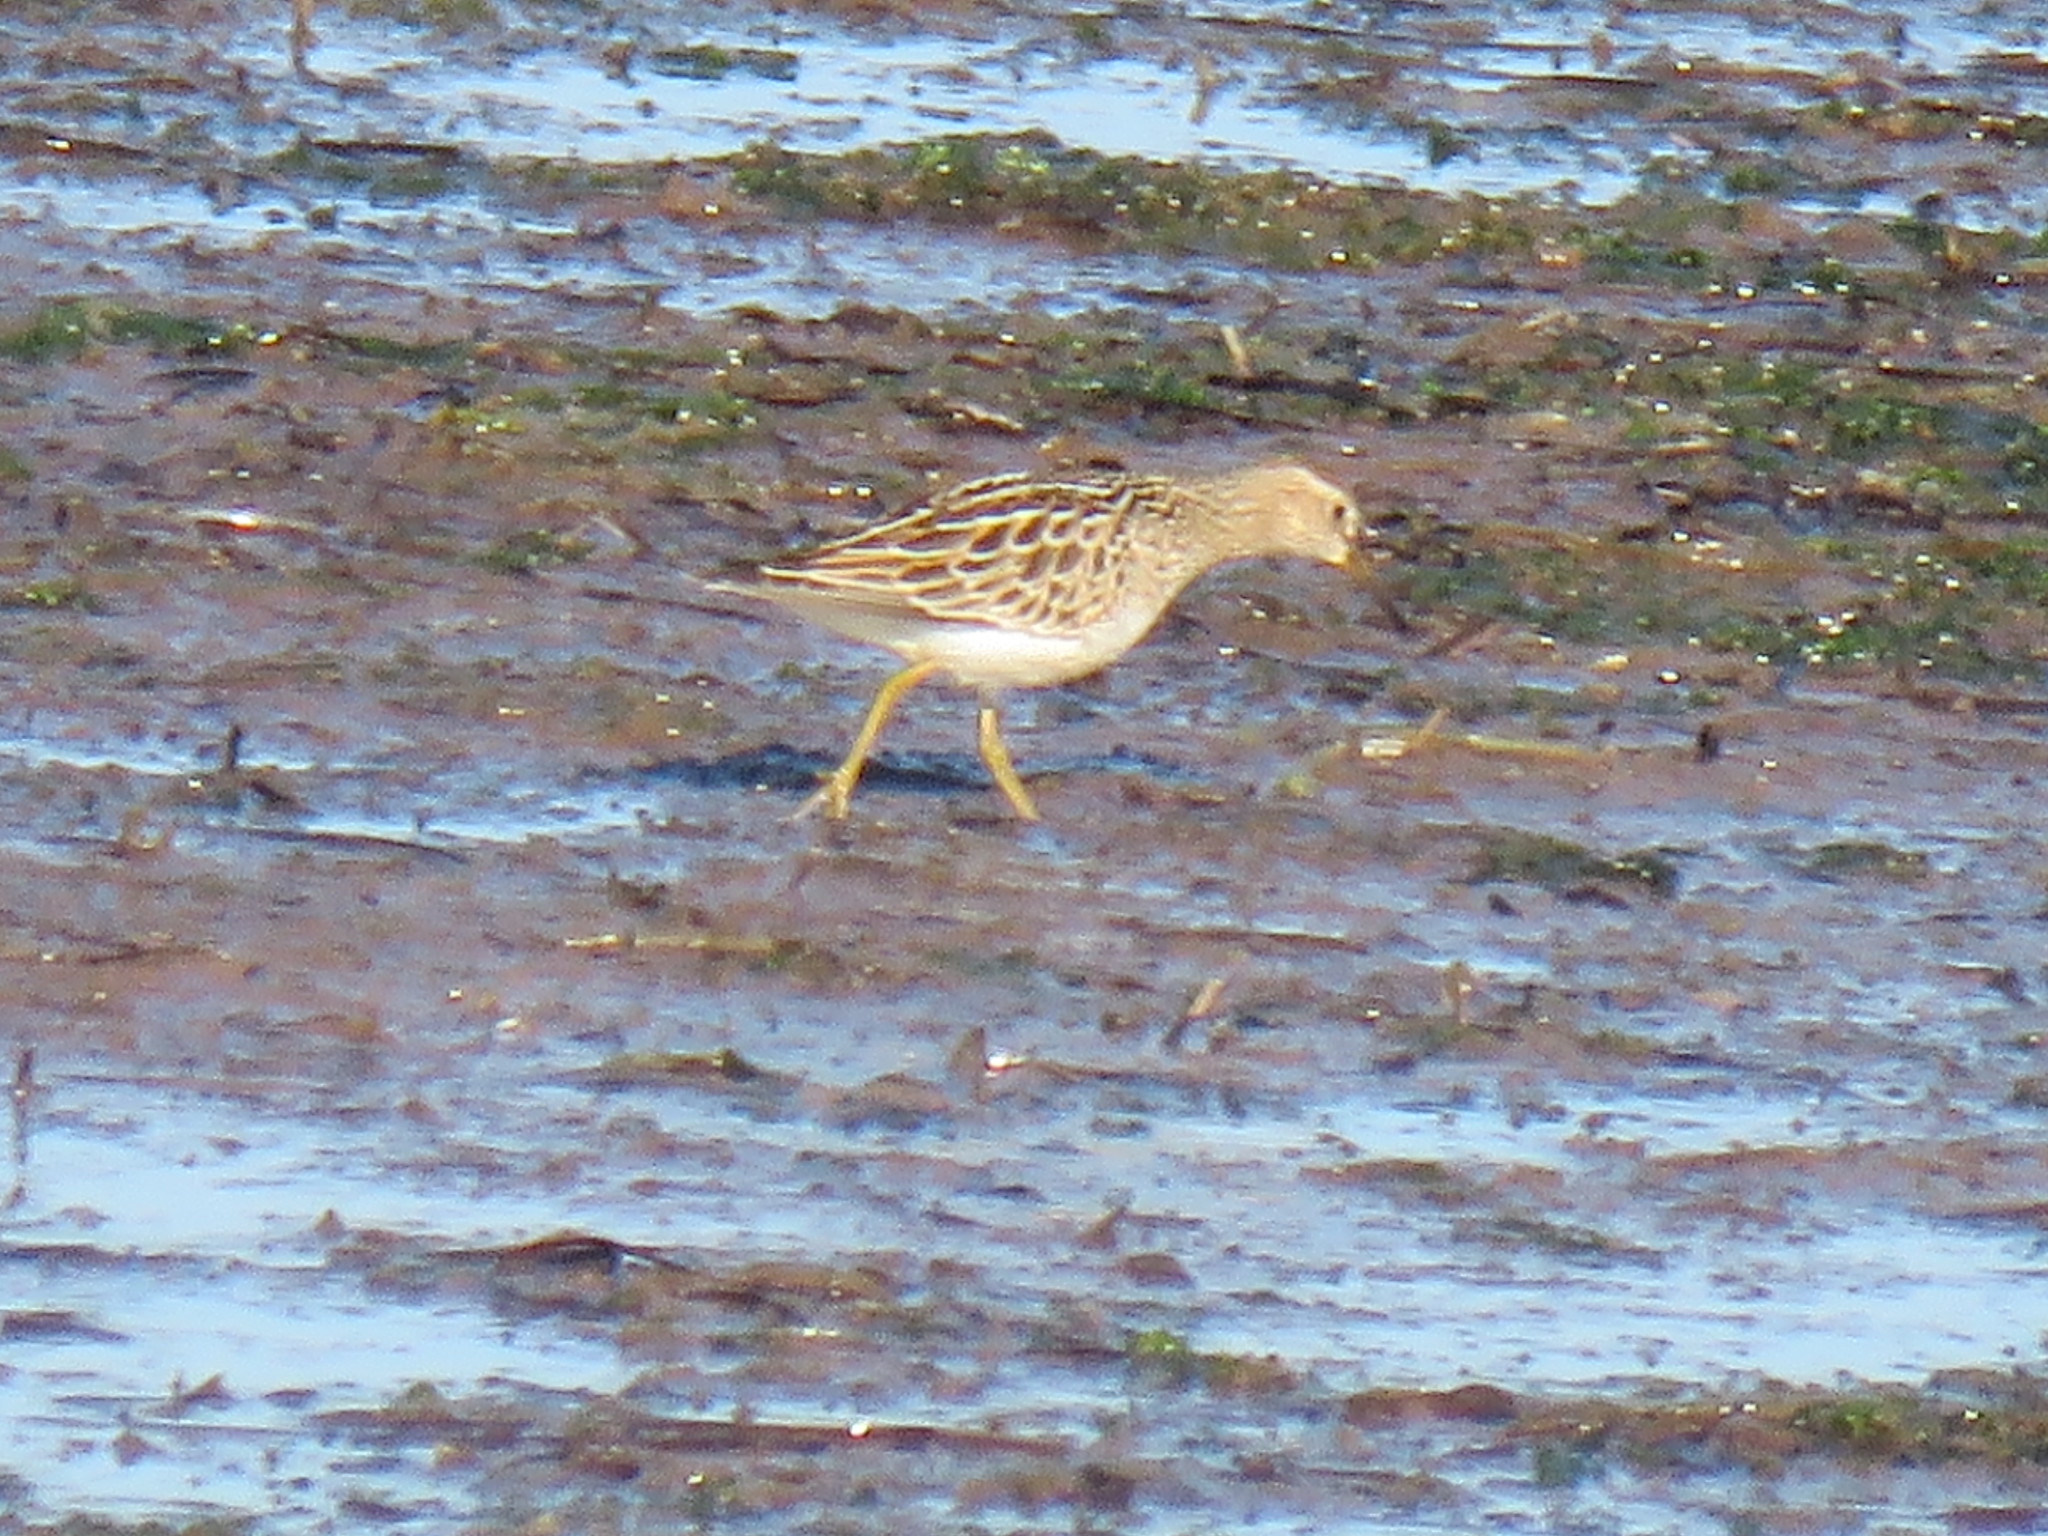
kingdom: Animalia
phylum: Chordata
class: Aves
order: Charadriiformes
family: Scolopacidae
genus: Calidris
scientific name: Calidris melanotos
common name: Pectoral sandpiper
